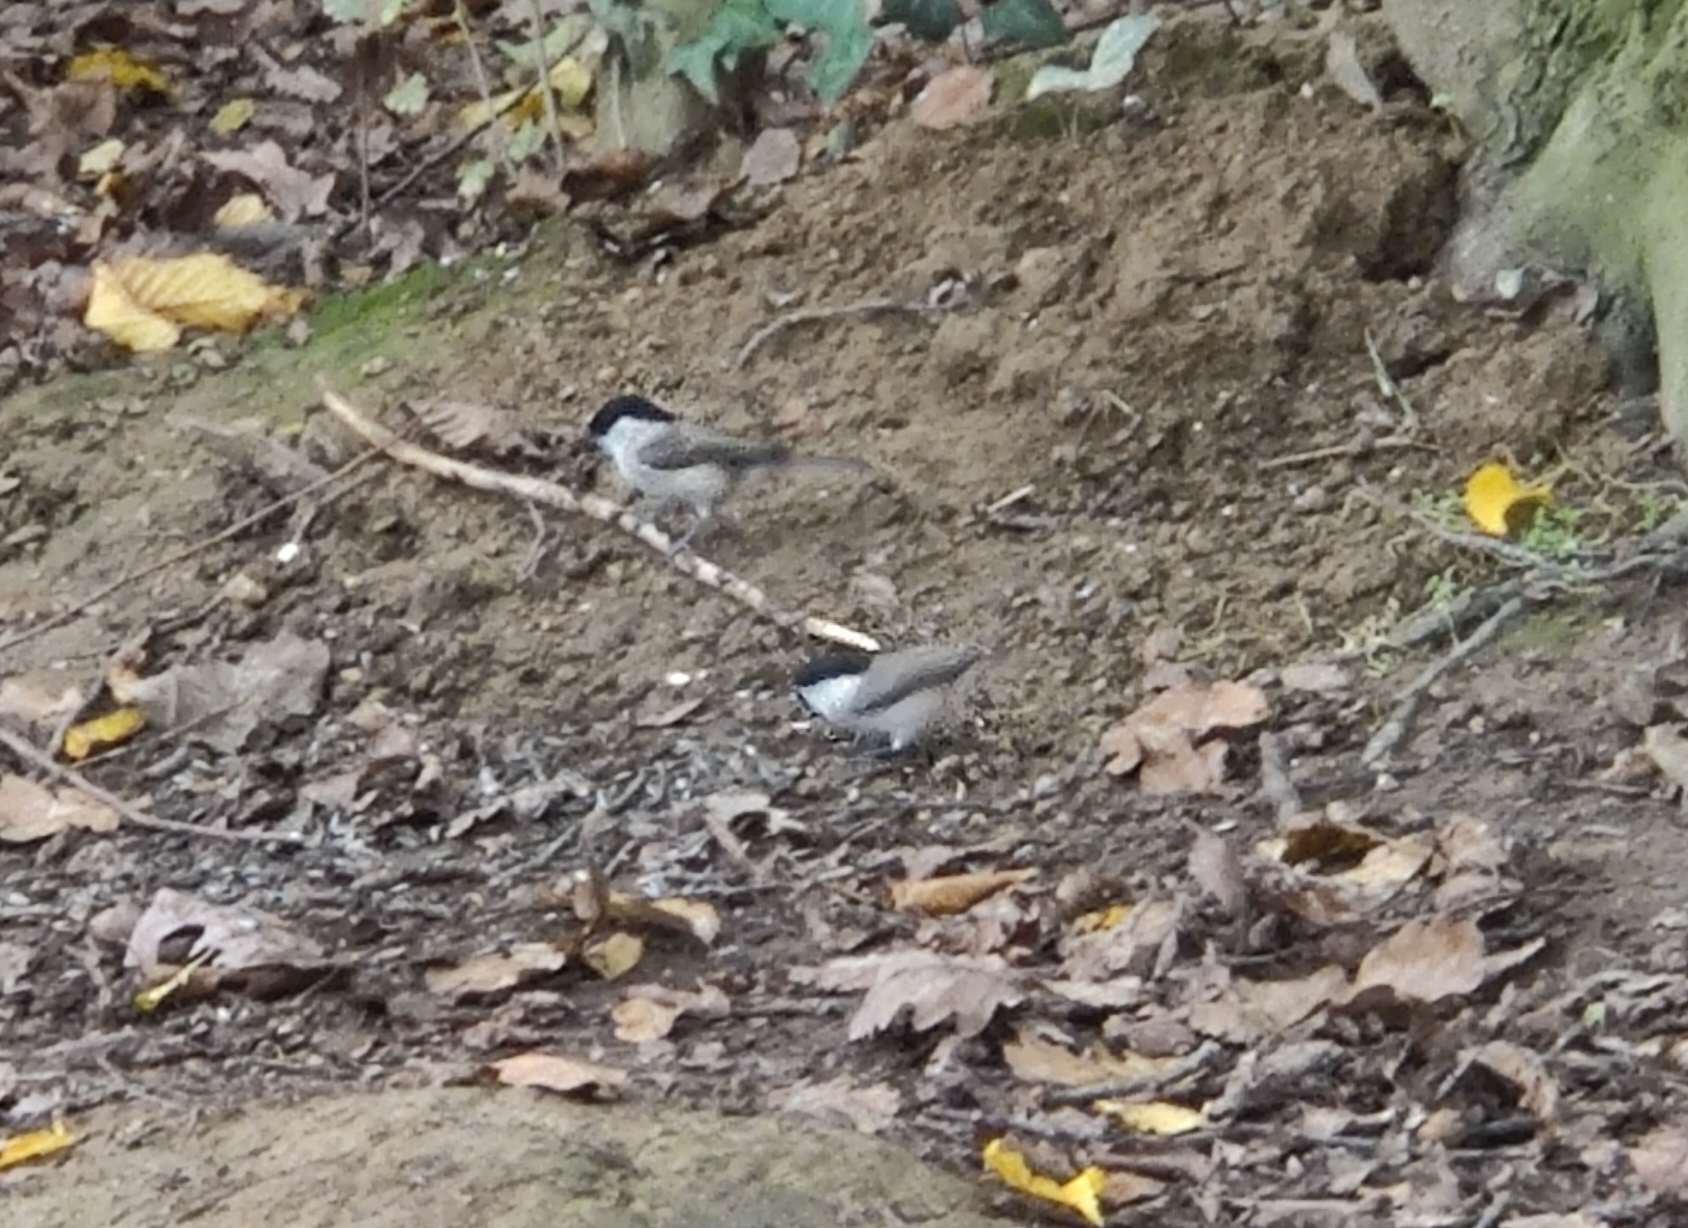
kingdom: Animalia
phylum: Chordata
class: Aves
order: Passeriformes
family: Paridae
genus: Poecile
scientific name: Poecile palustris
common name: Marsh tit
